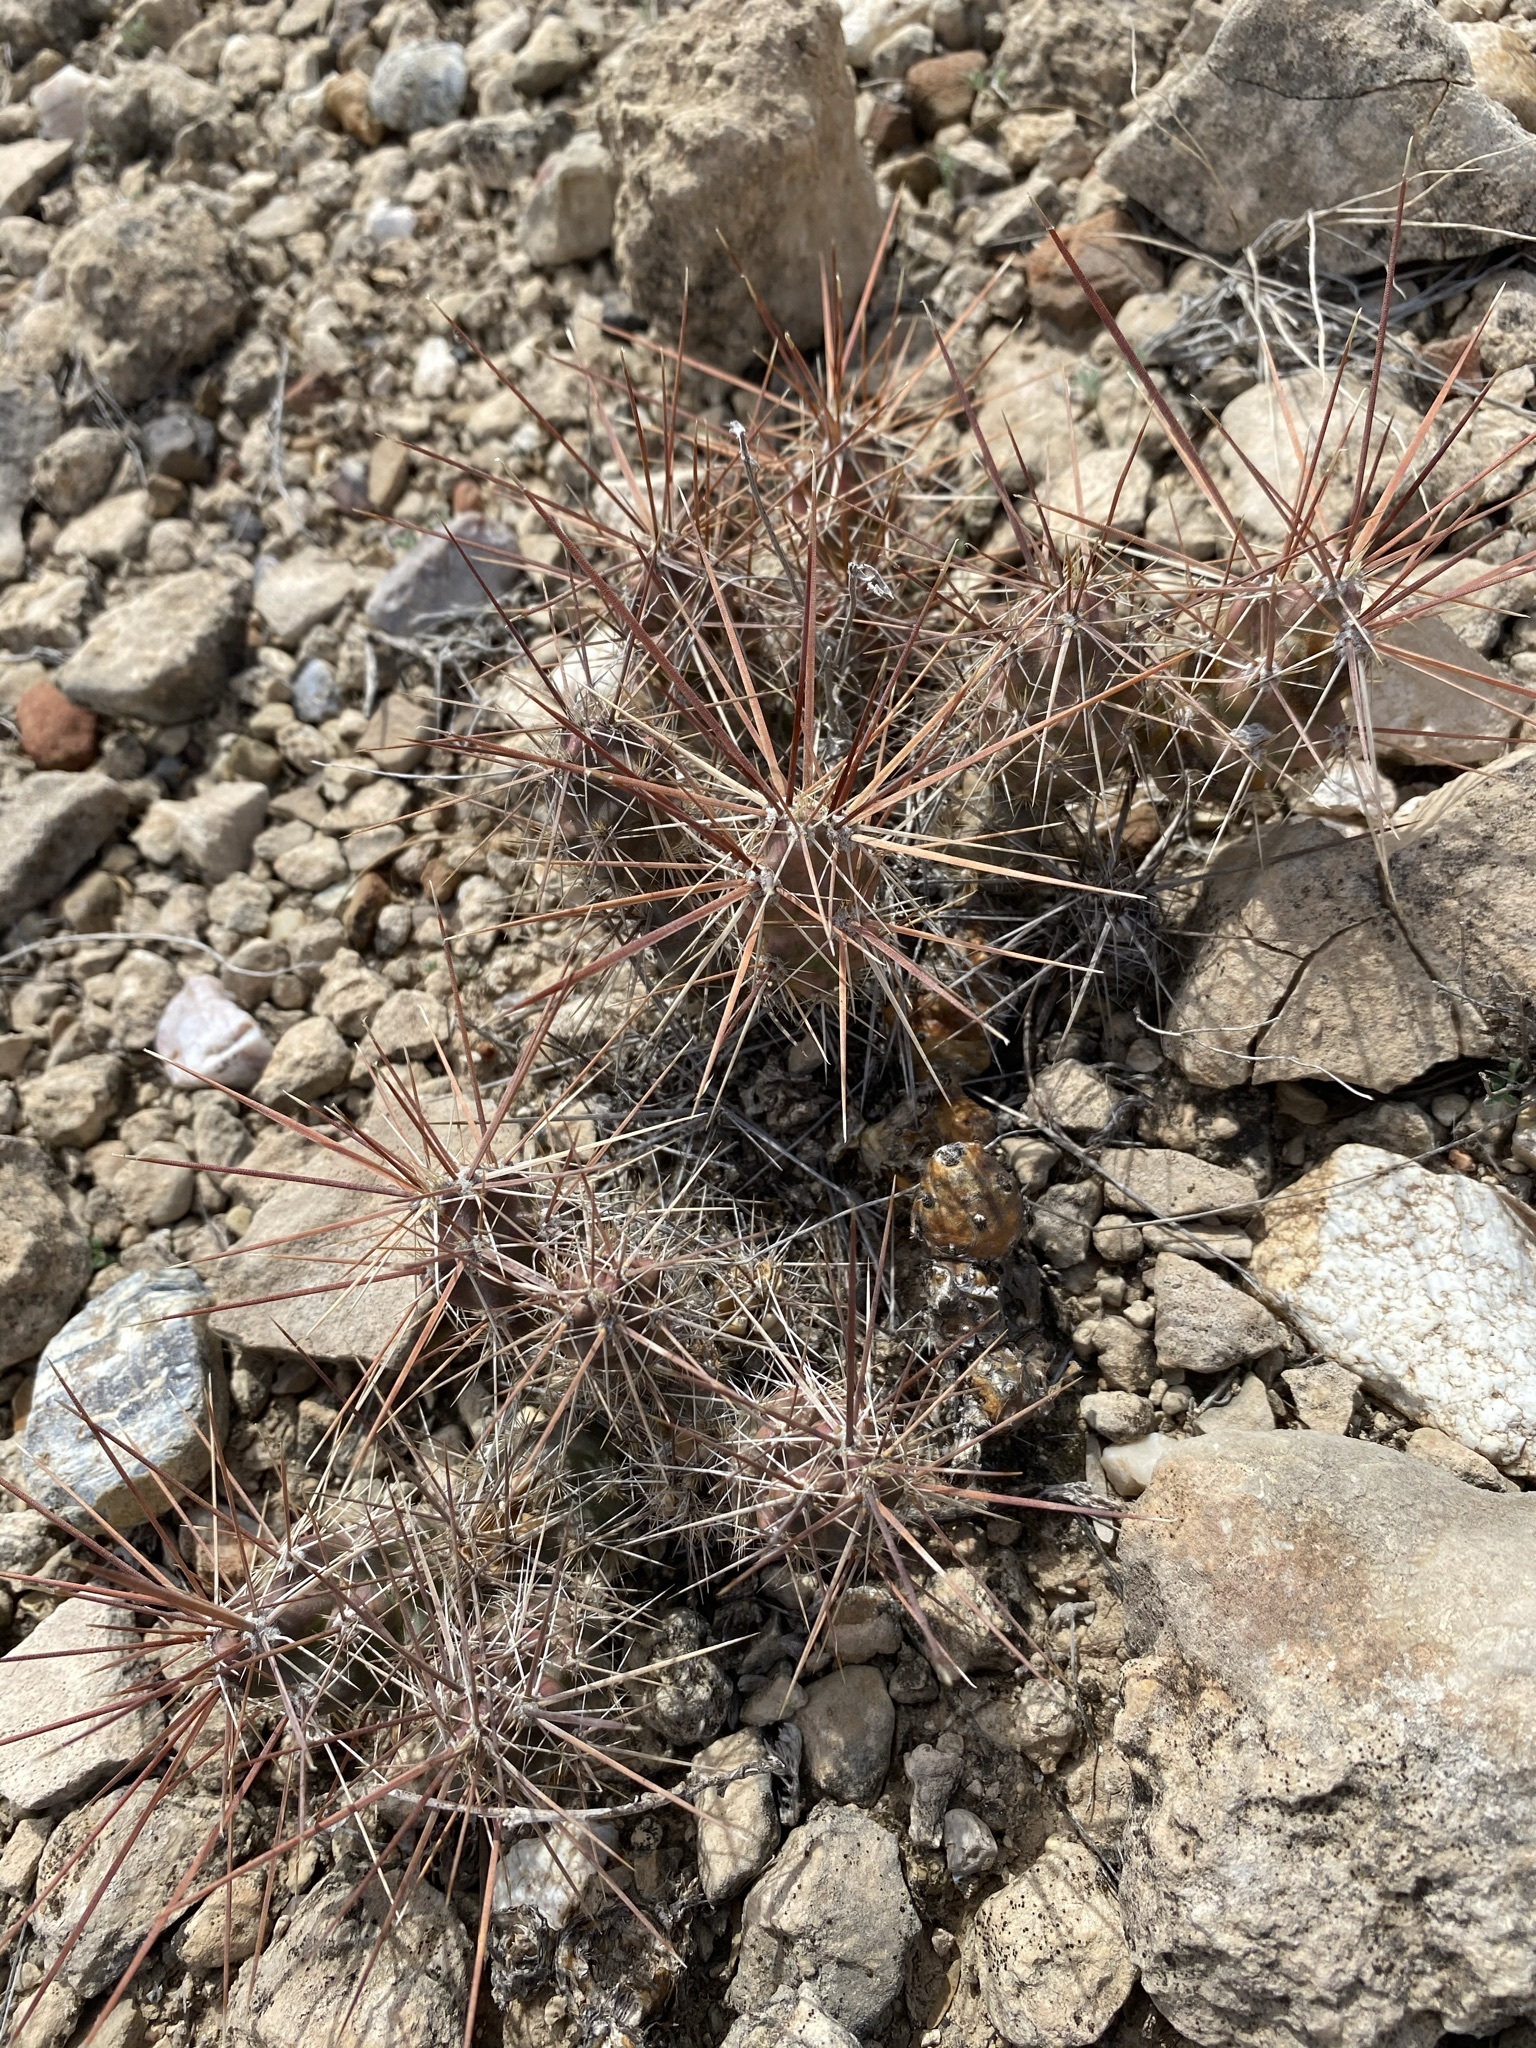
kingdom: Plantae
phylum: Tracheophyta
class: Magnoliopsida
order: Caryophyllales
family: Cactaceae
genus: Grusonia
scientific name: Grusonia schottii
